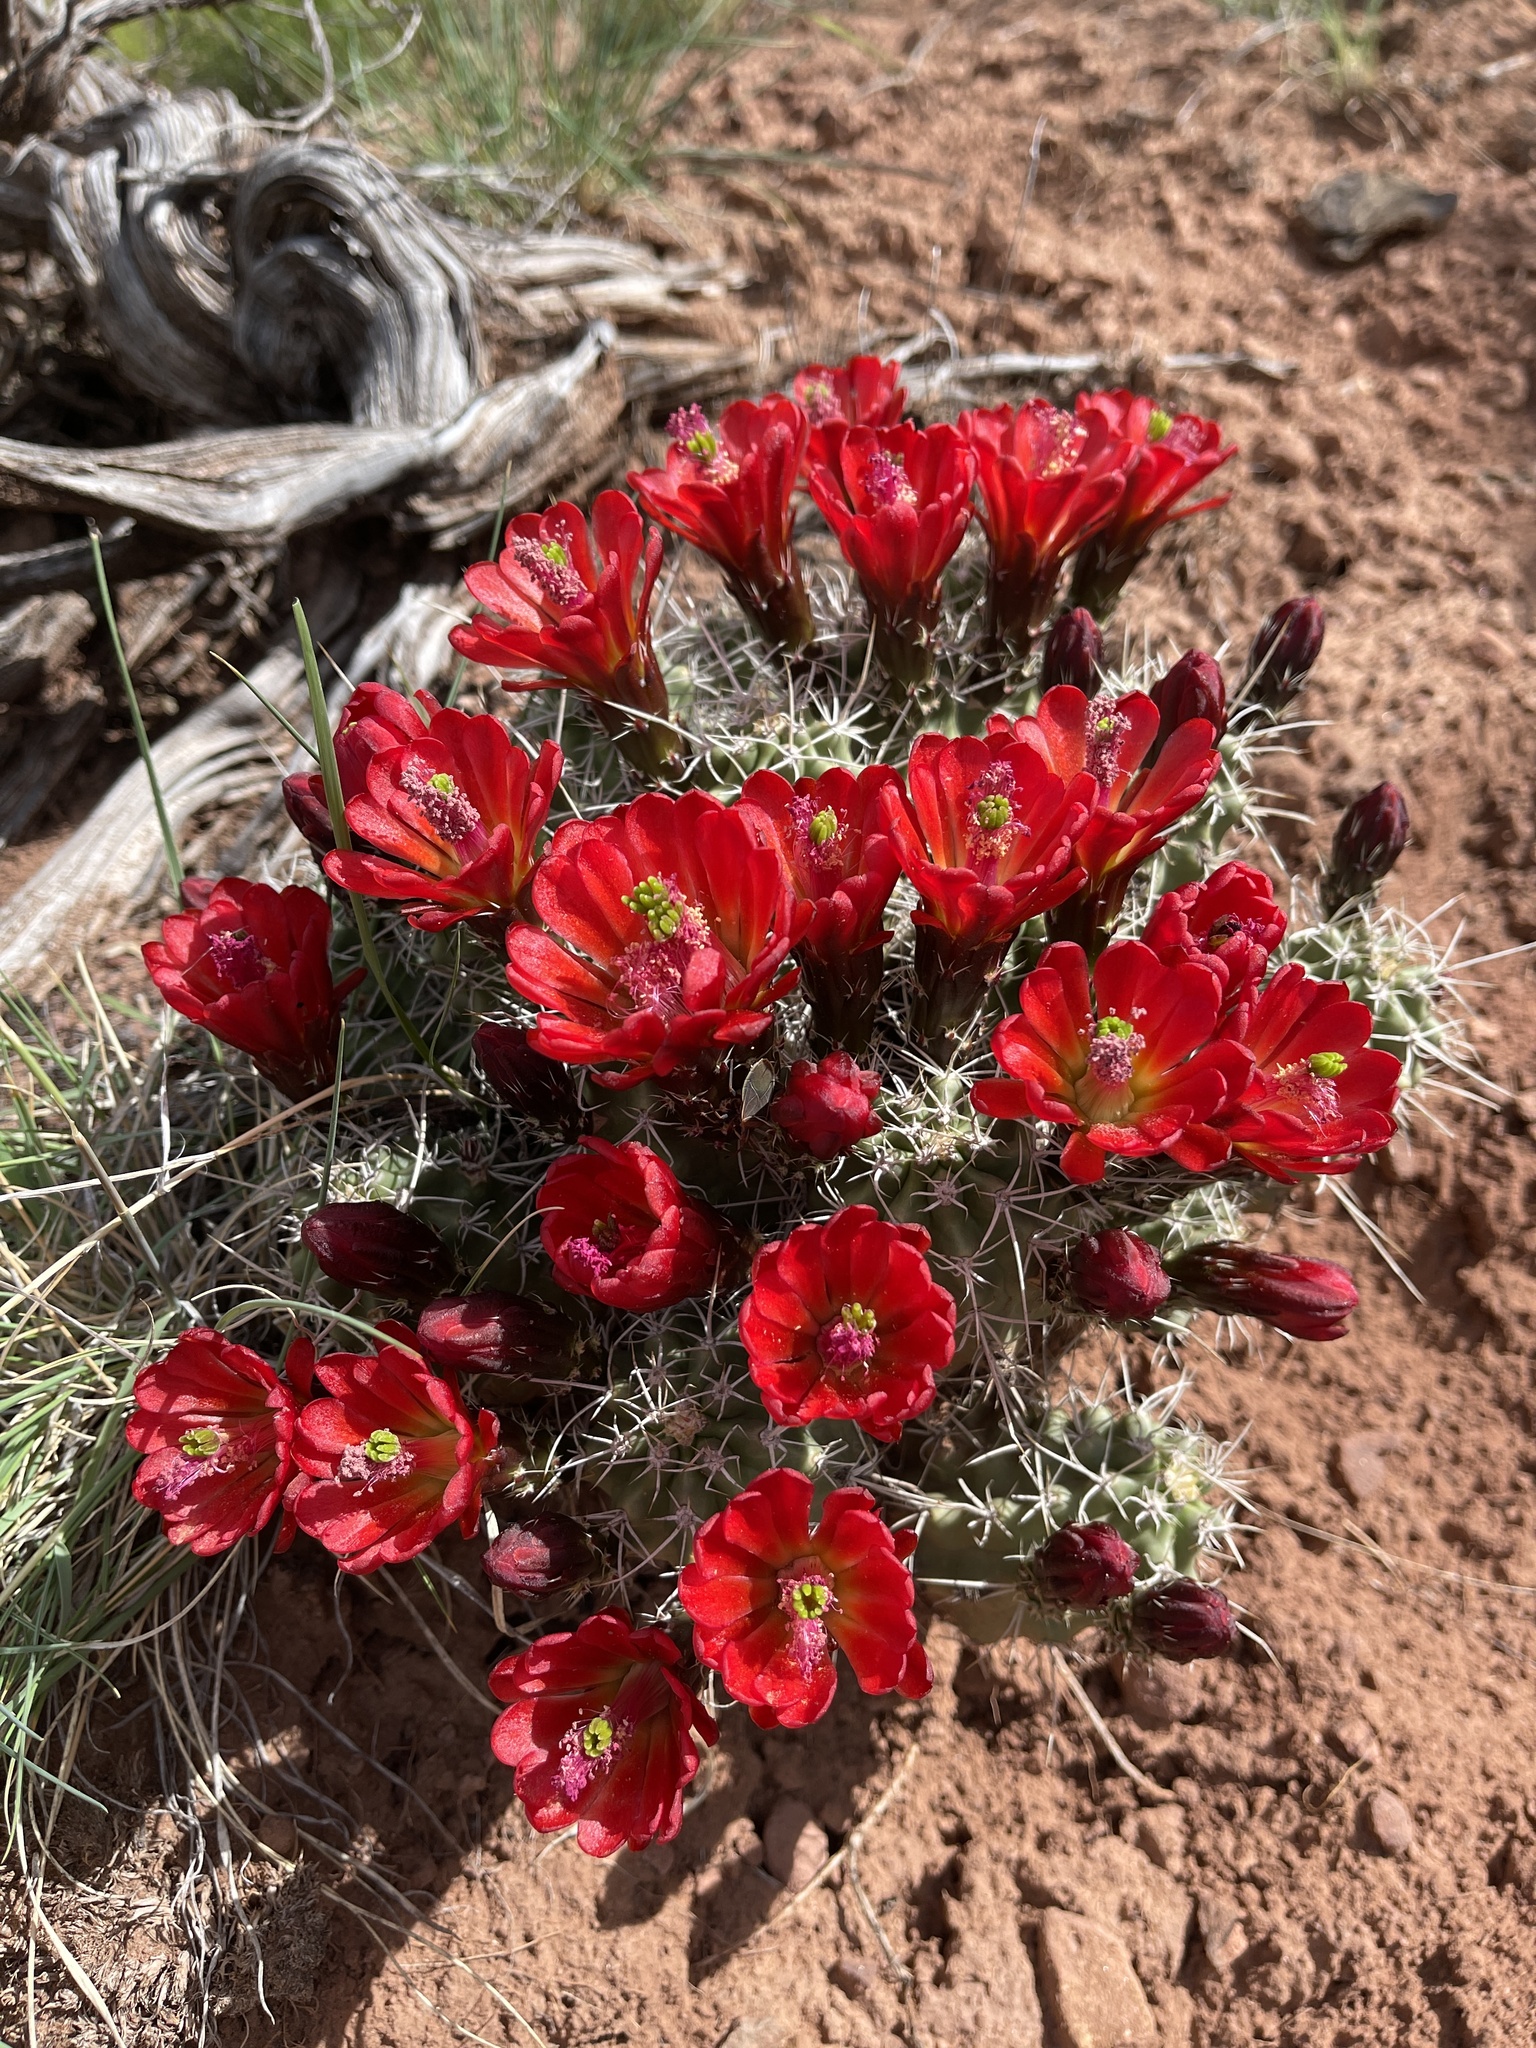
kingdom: Plantae
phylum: Tracheophyta
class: Magnoliopsida
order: Caryophyllales
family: Cactaceae
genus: Echinocereus
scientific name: Echinocereus triglochidiatus
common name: Claretcup hedgehog
